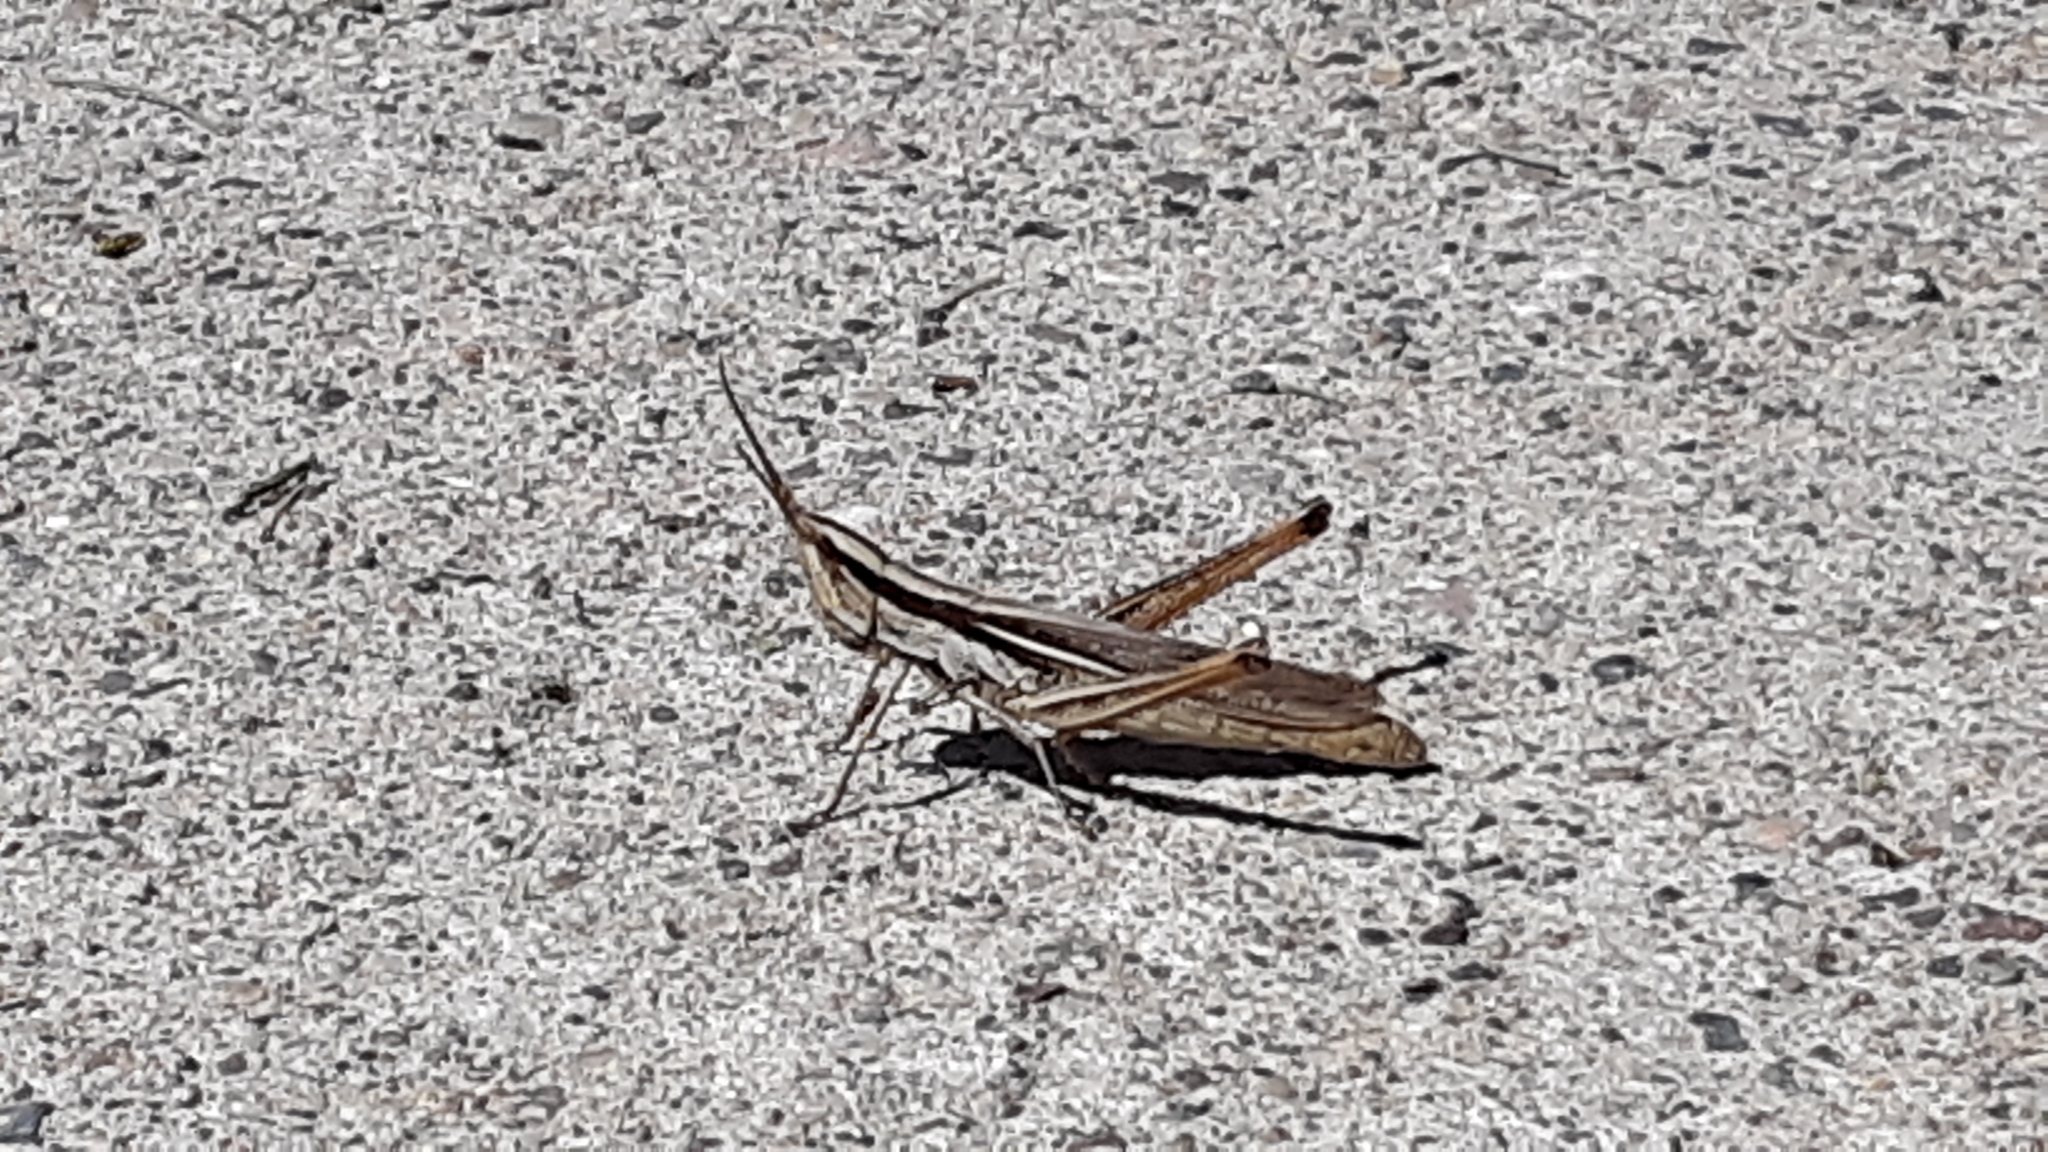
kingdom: Animalia
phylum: Arthropoda
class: Insecta
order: Orthoptera
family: Acrididae
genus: Mermiria
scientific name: Mermiria bivittata
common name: Two-striped mermiria grasshopper
